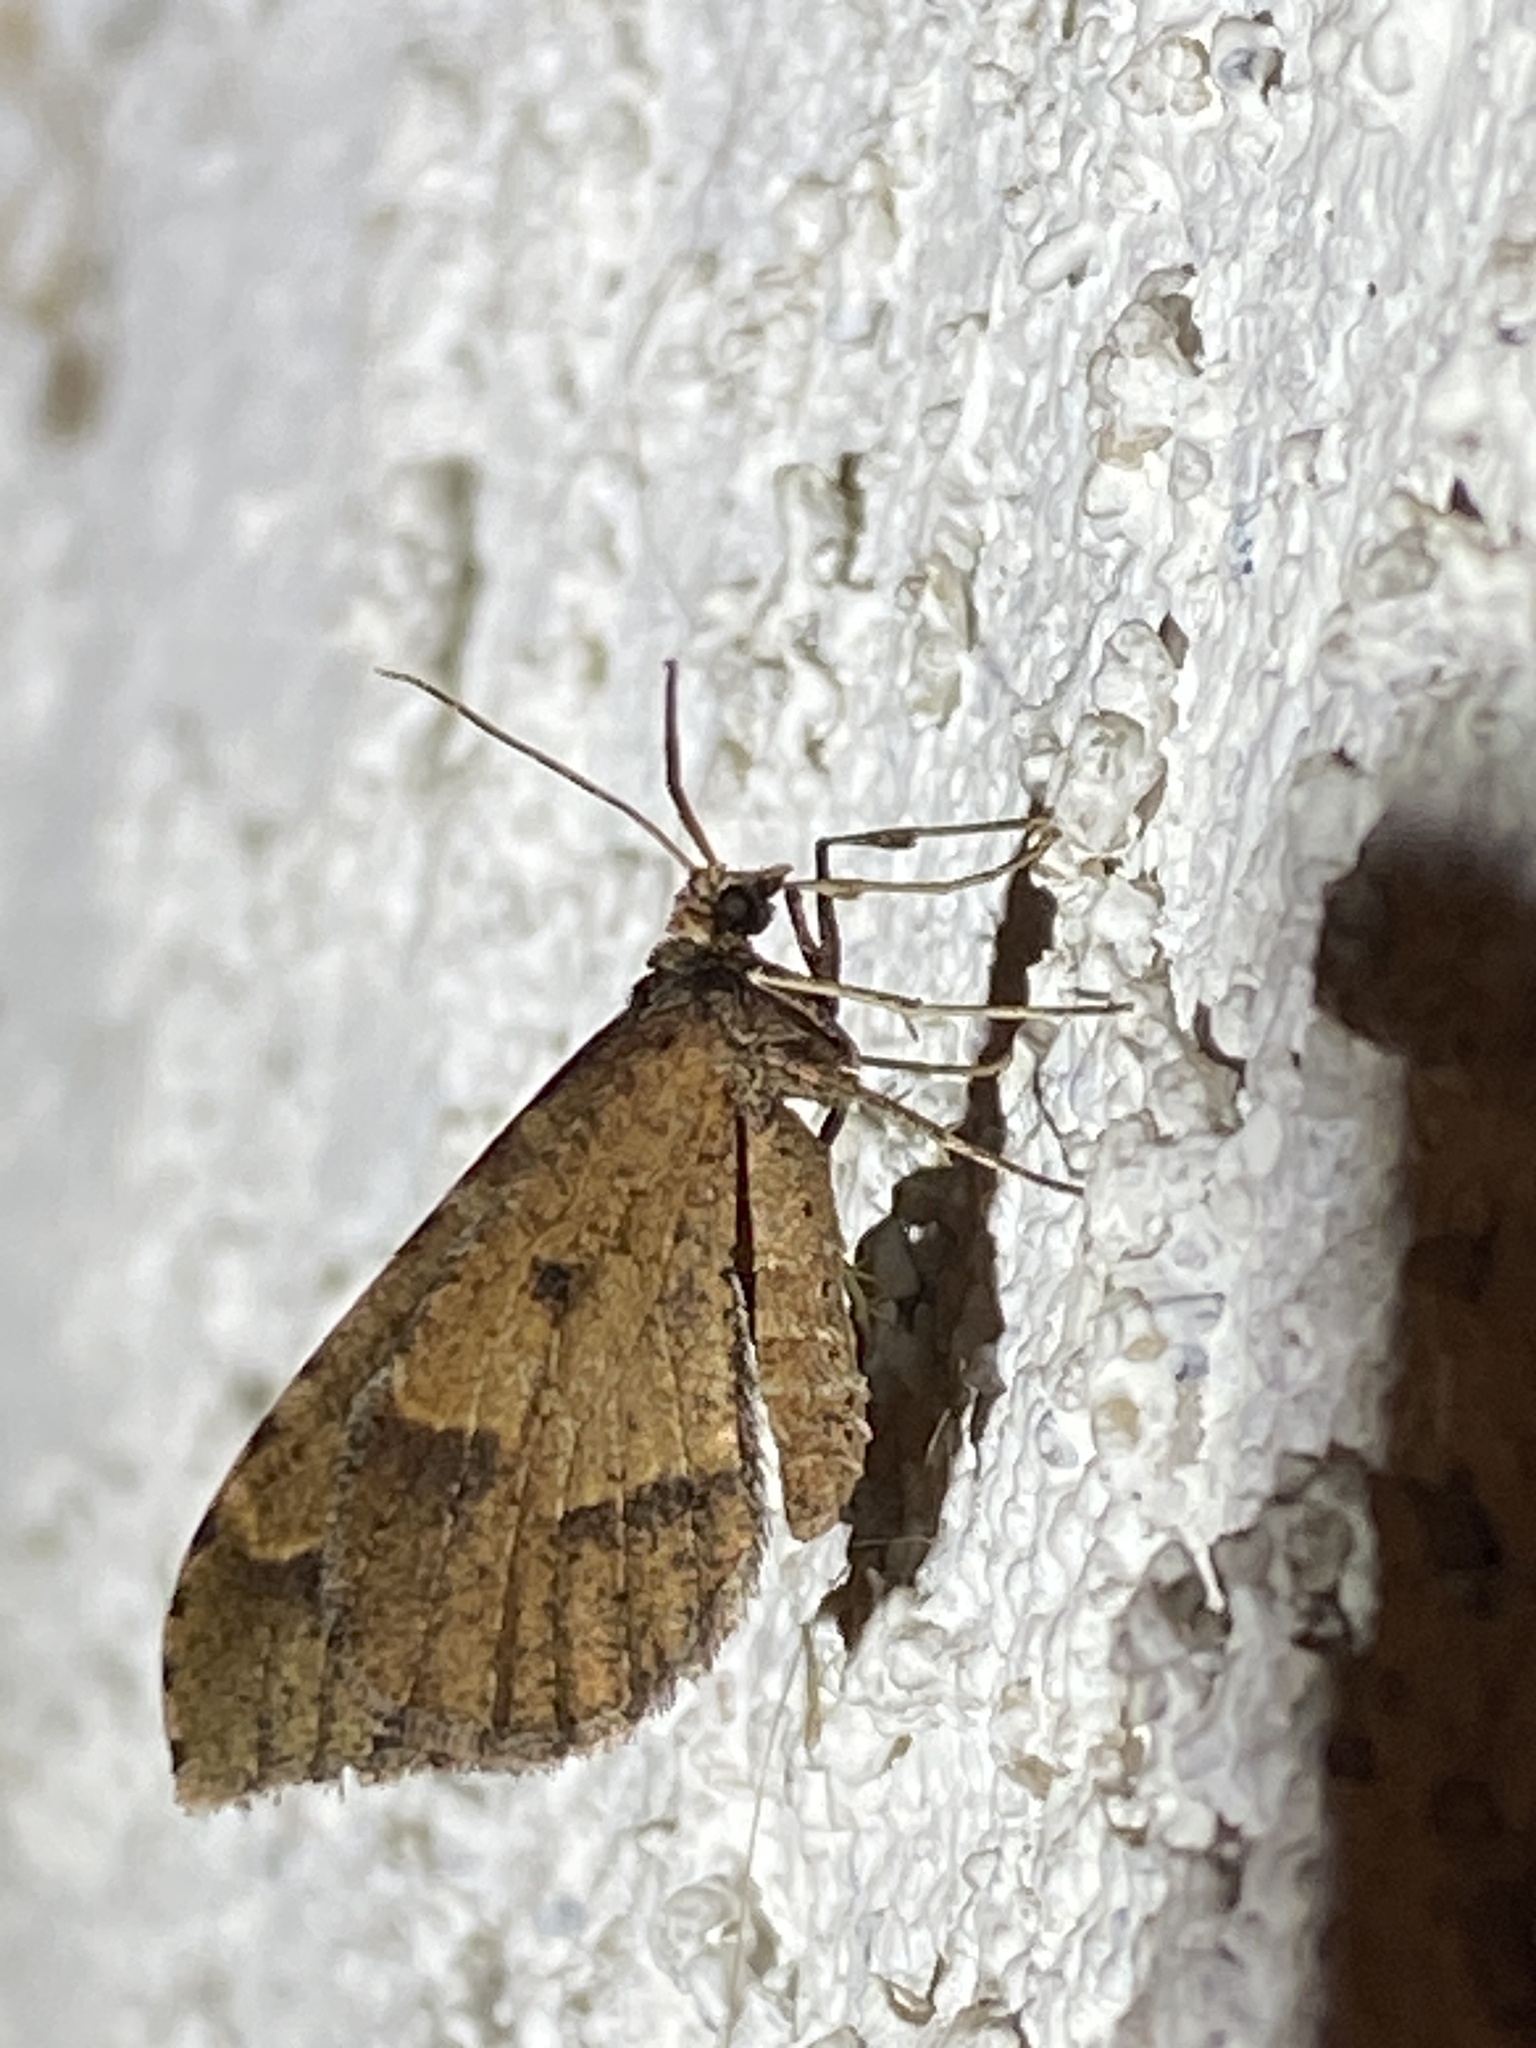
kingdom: Animalia
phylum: Arthropoda
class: Insecta
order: Lepidoptera
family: Geometridae
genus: Stamnodes
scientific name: Stamnodes affiliata
